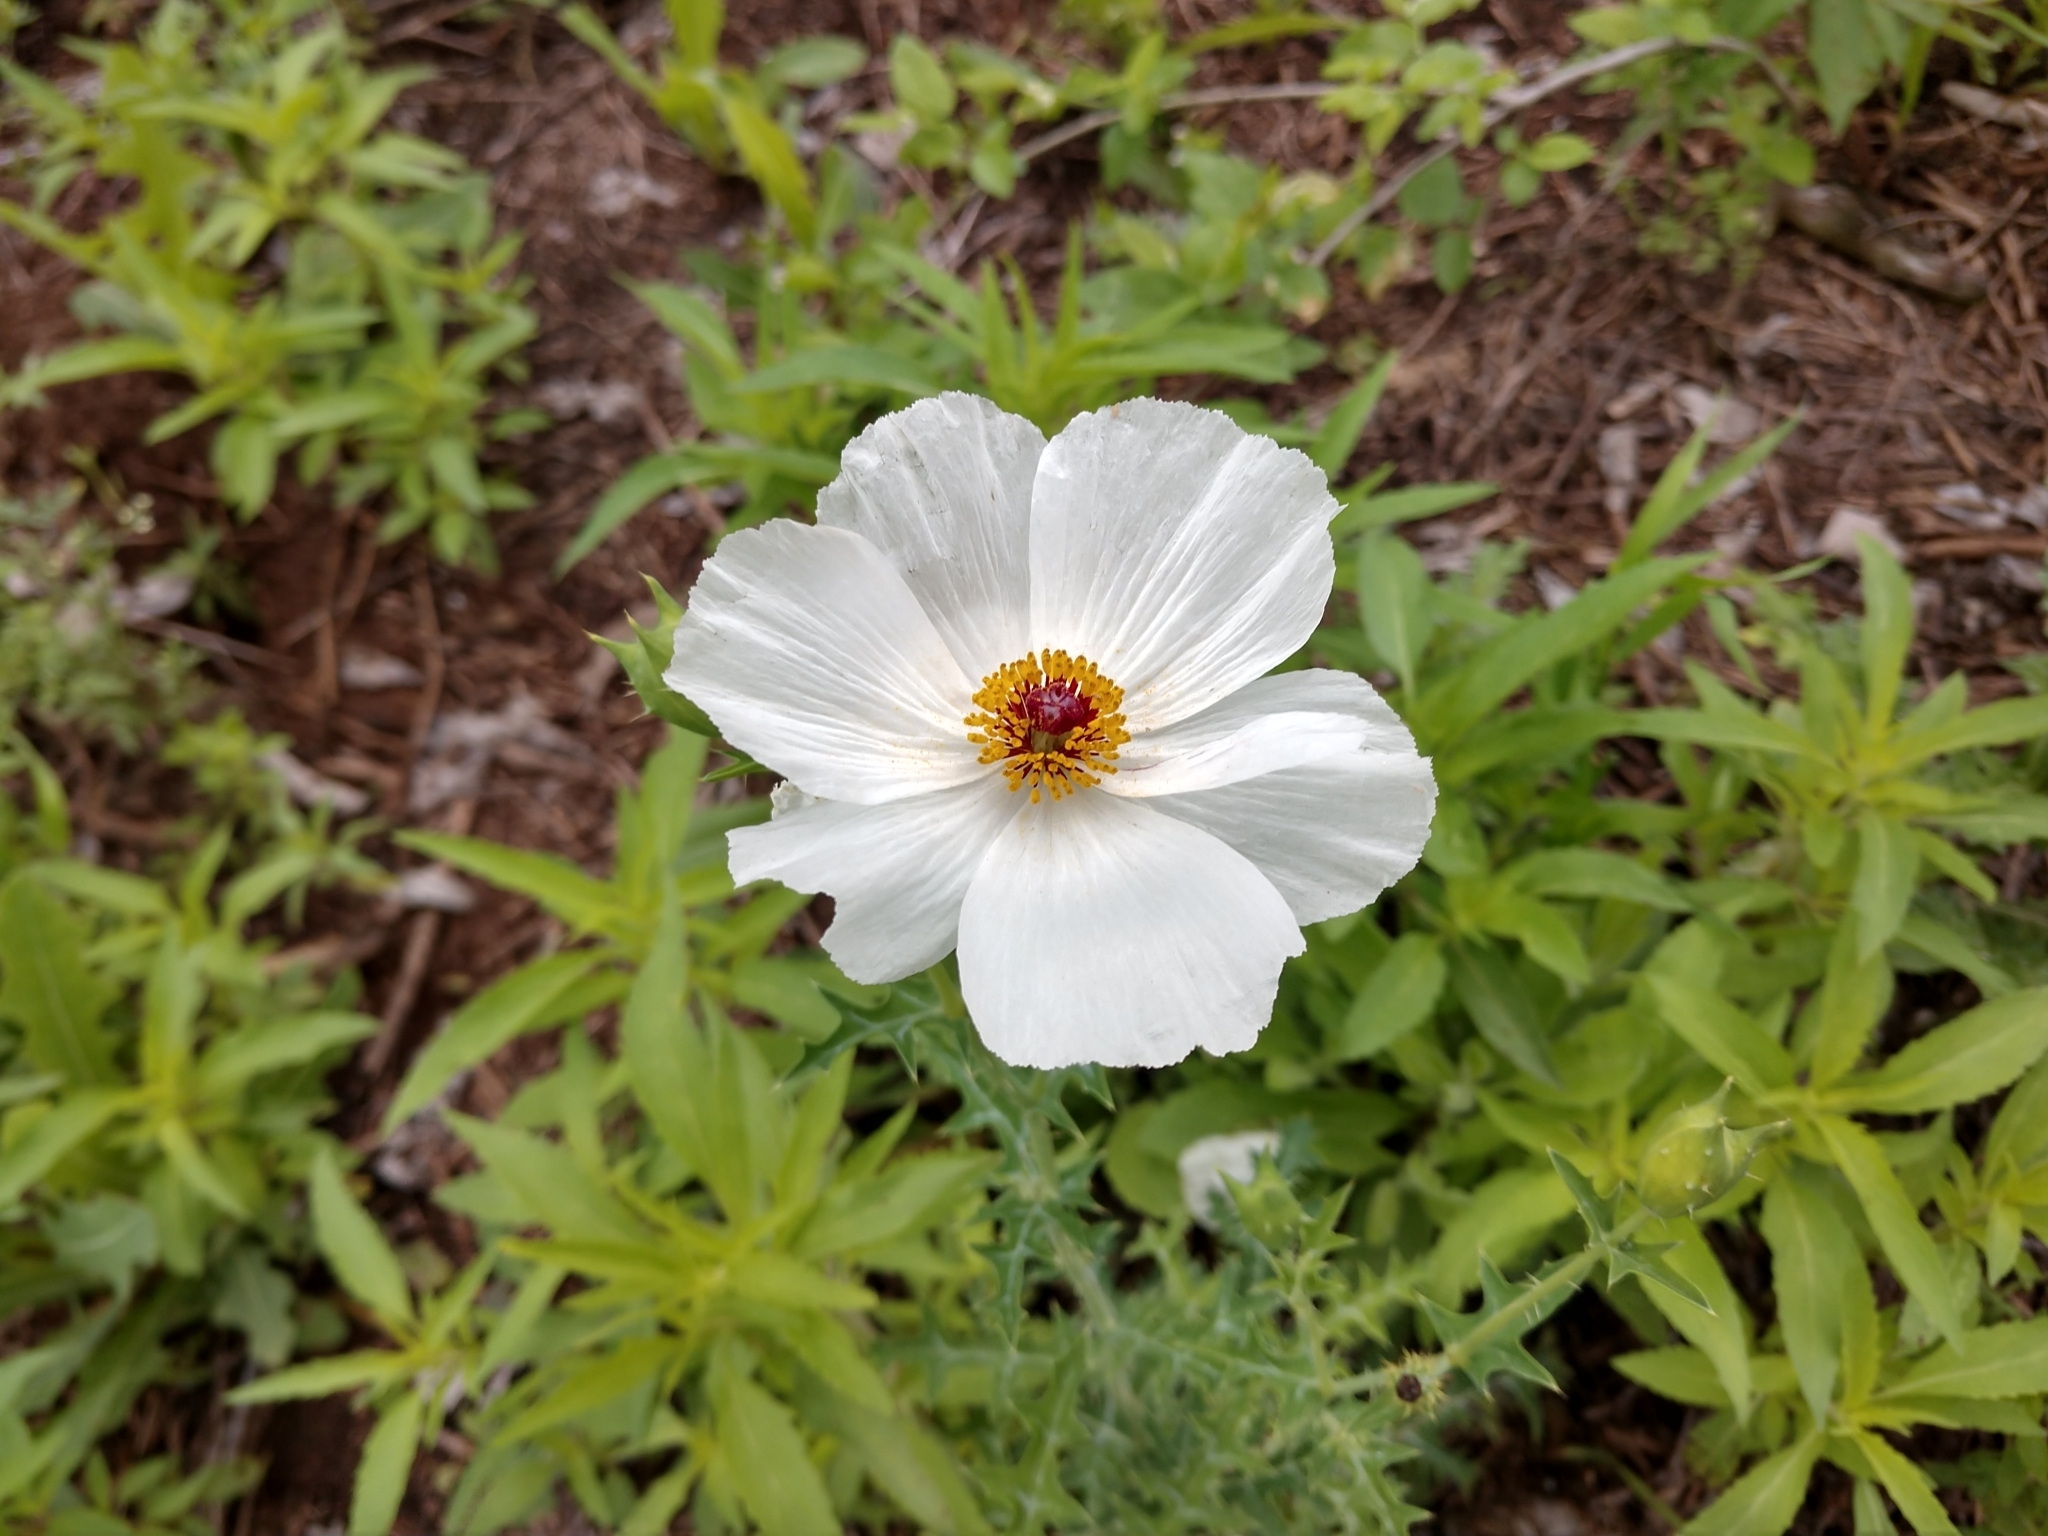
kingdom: Plantae
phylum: Tracheophyta
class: Magnoliopsida
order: Ranunculales
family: Papaveraceae
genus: Argemone
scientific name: Argemone sanguinea
